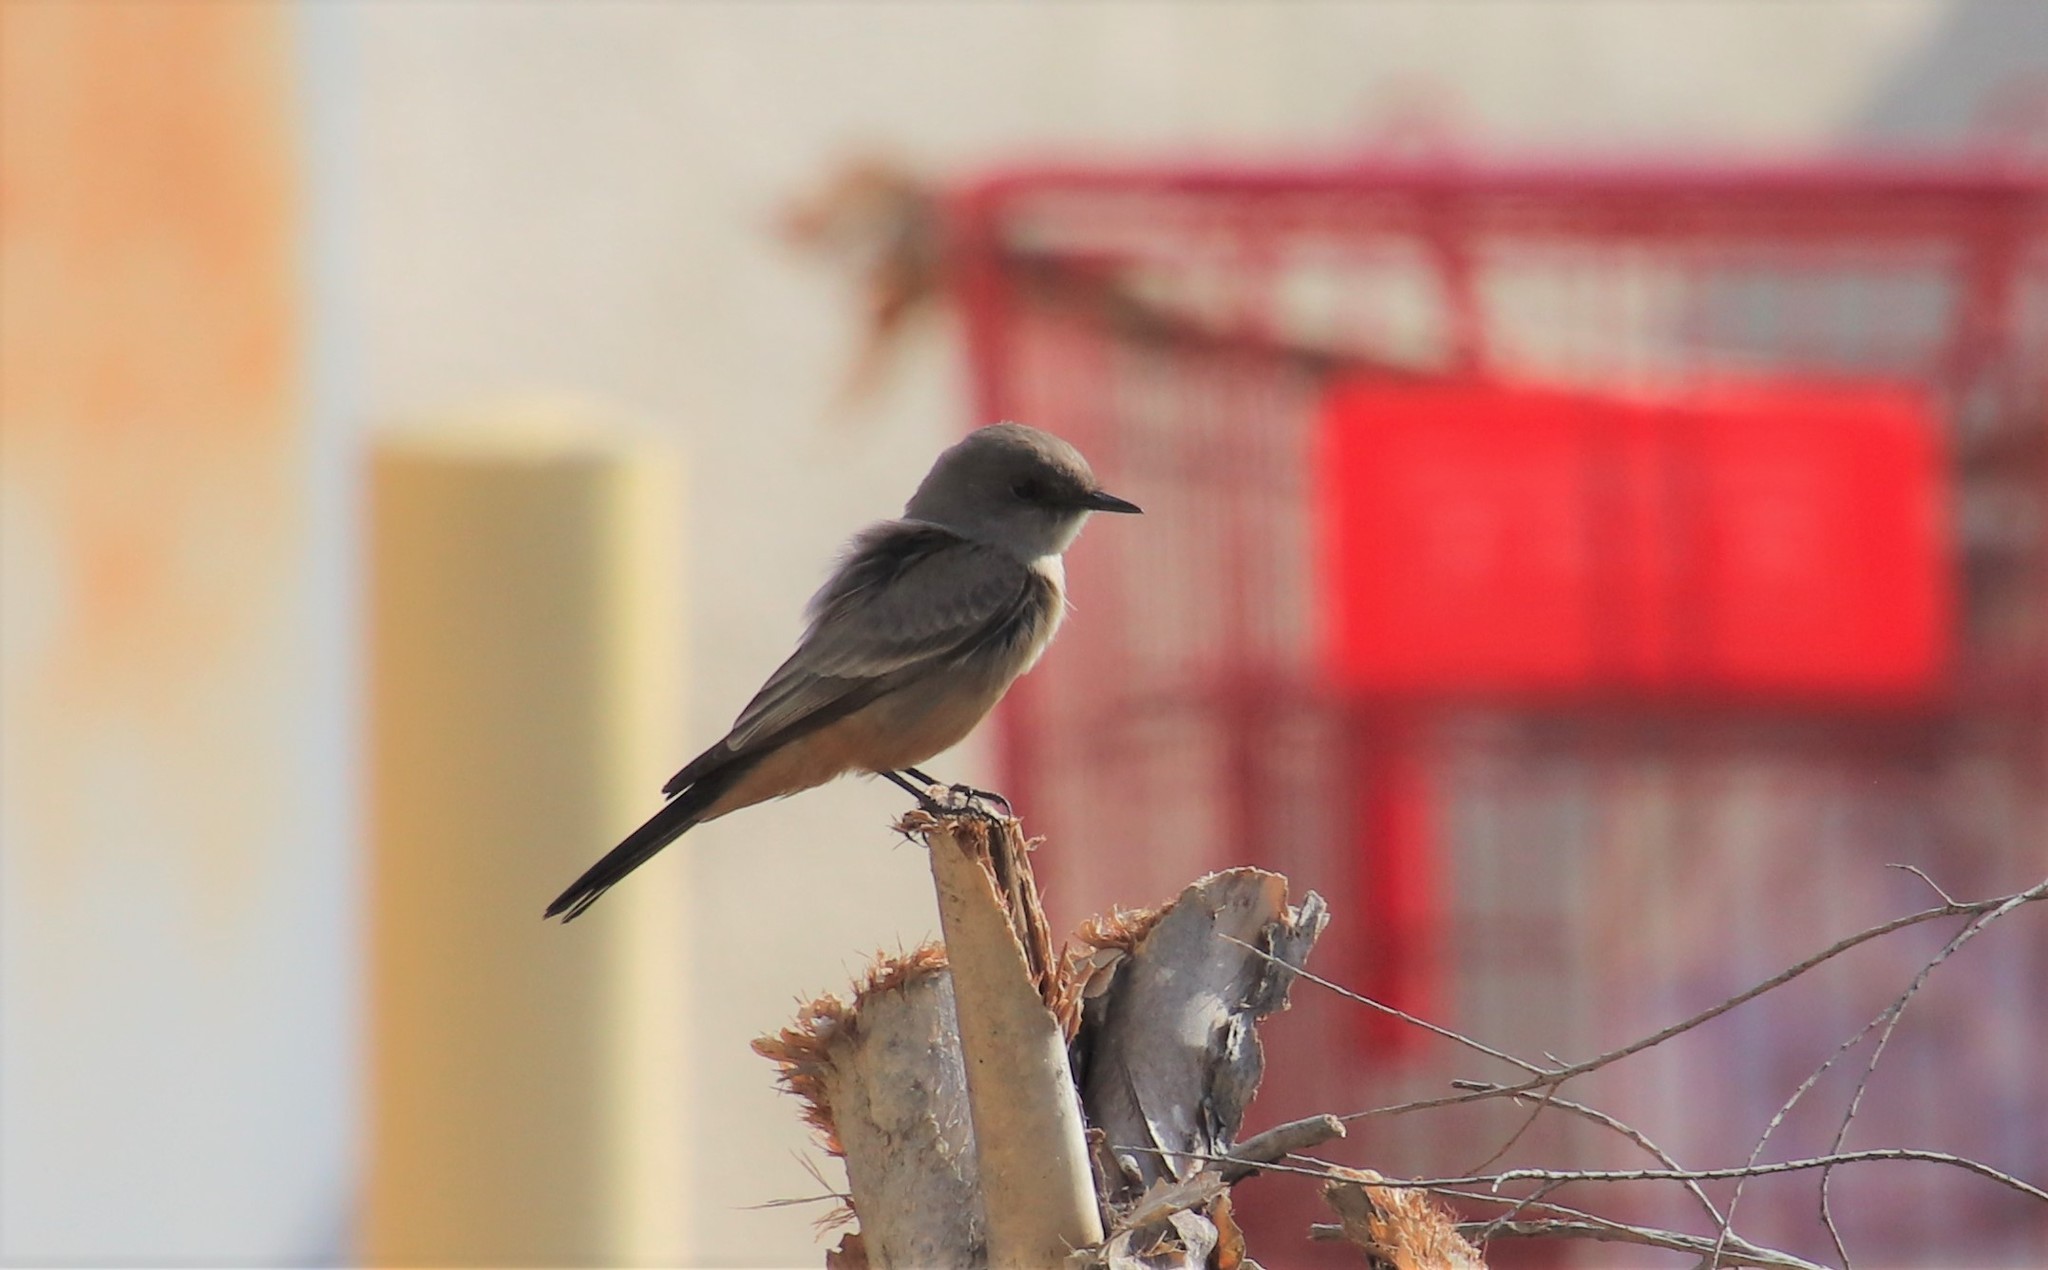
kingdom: Animalia
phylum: Chordata
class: Aves
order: Passeriformes
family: Tyrannidae
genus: Sayornis
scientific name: Sayornis saya
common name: Say's phoebe
